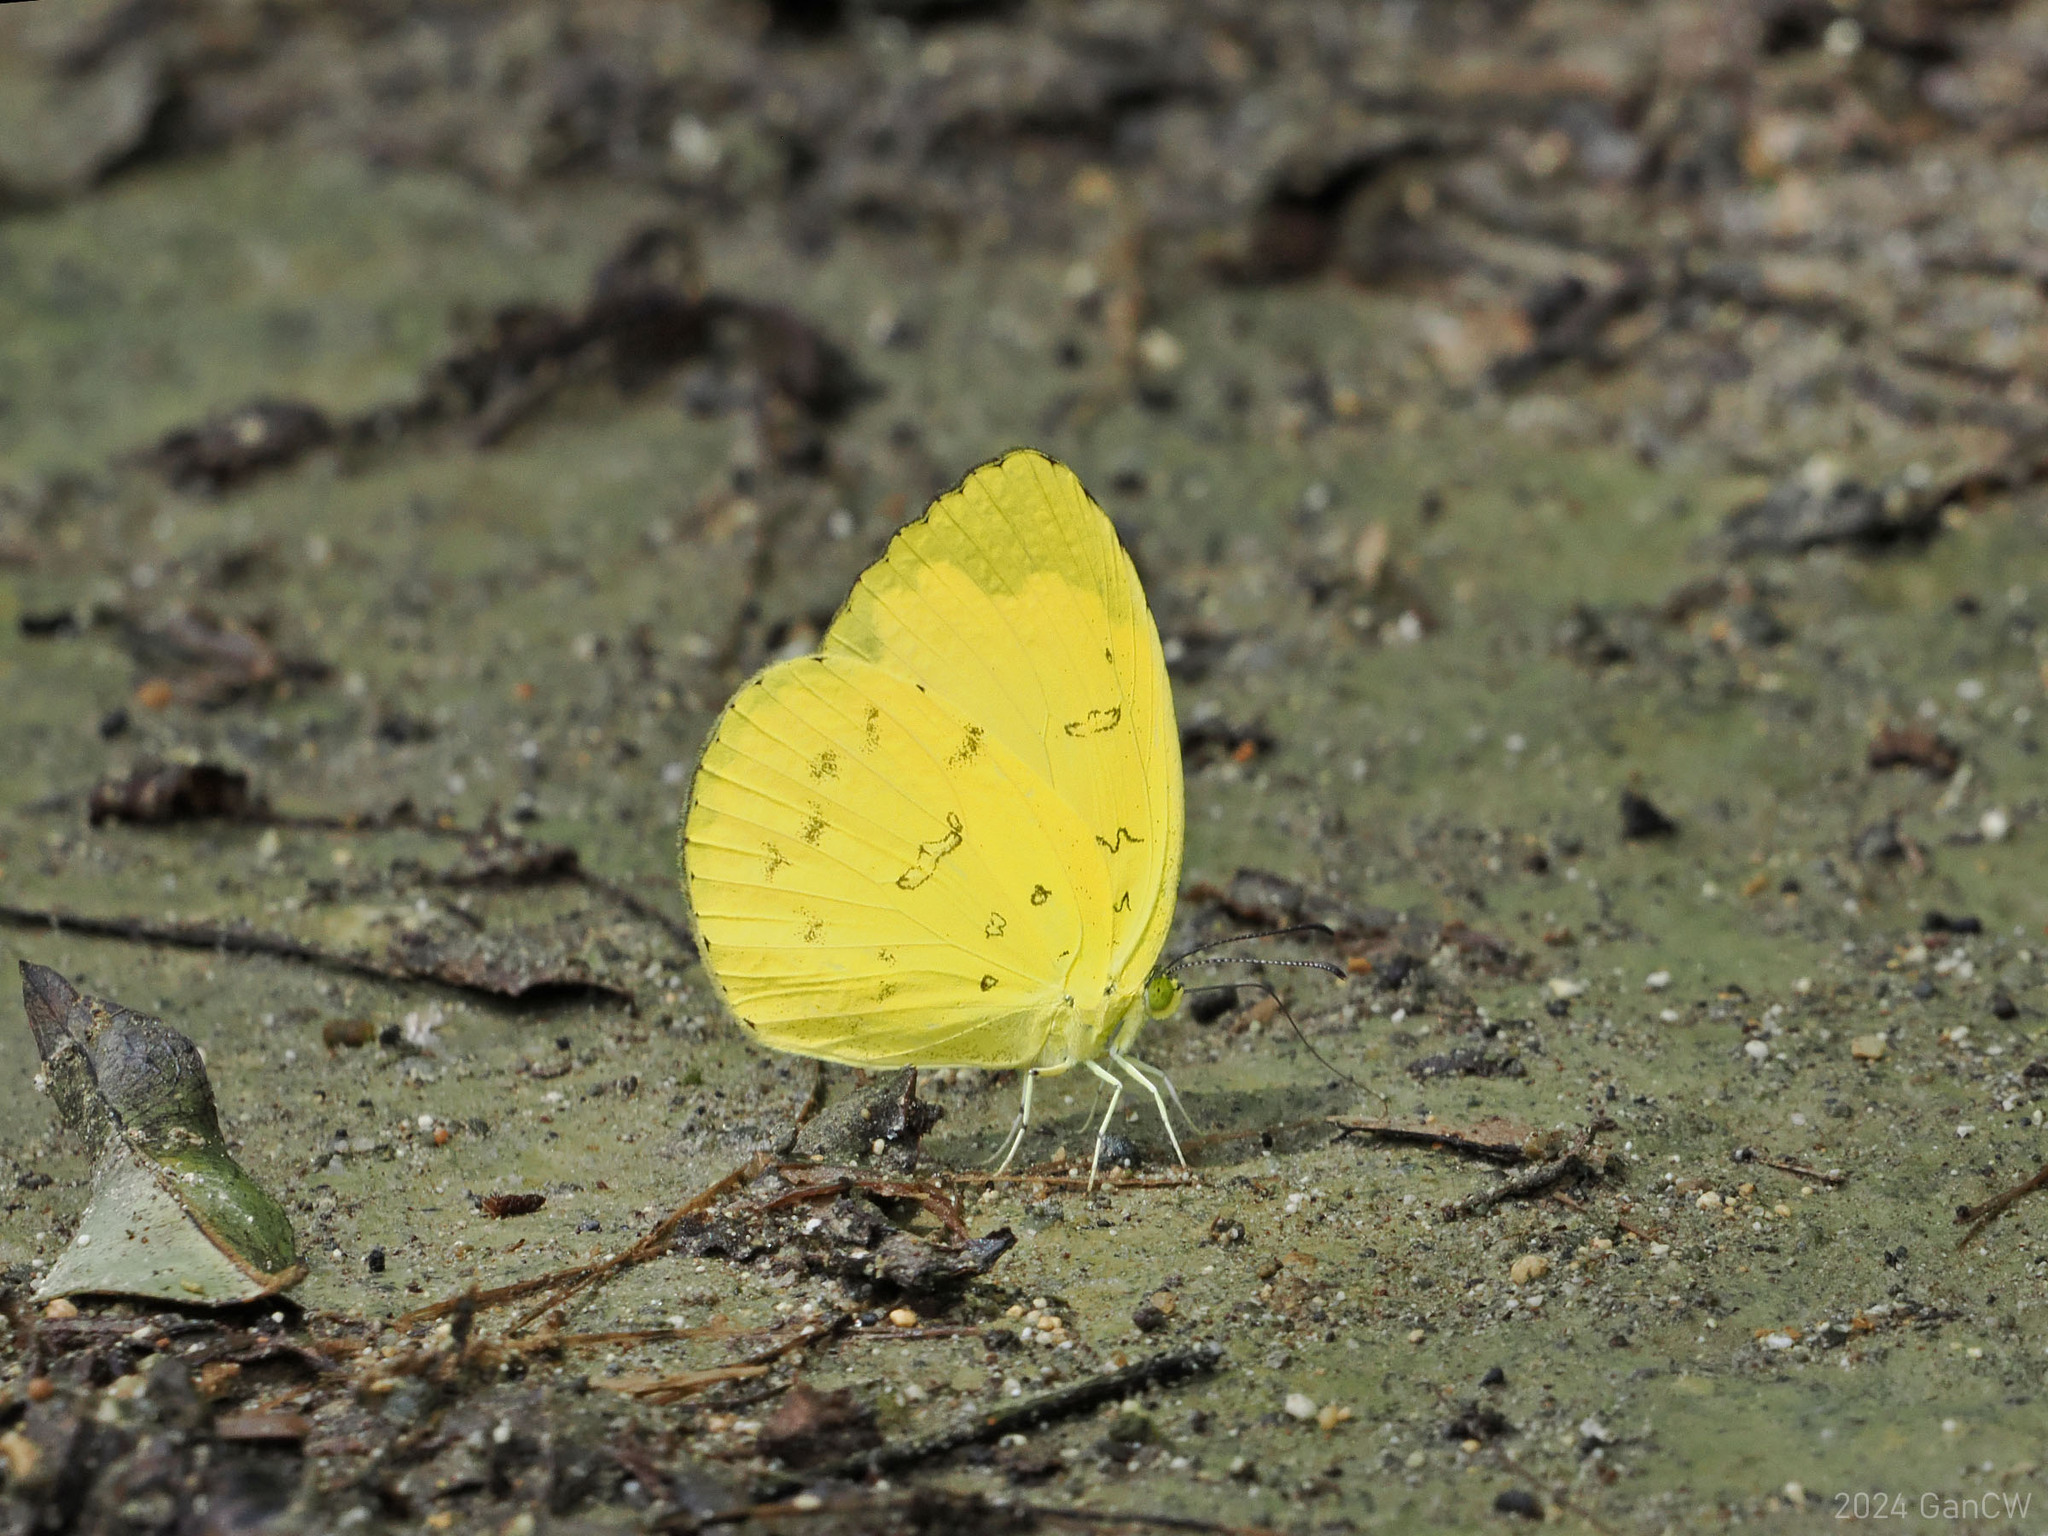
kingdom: Animalia
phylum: Arthropoda
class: Insecta
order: Lepidoptera
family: Pieridae
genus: Eurema
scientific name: Eurema blanda
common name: Three-spot grass yellow
